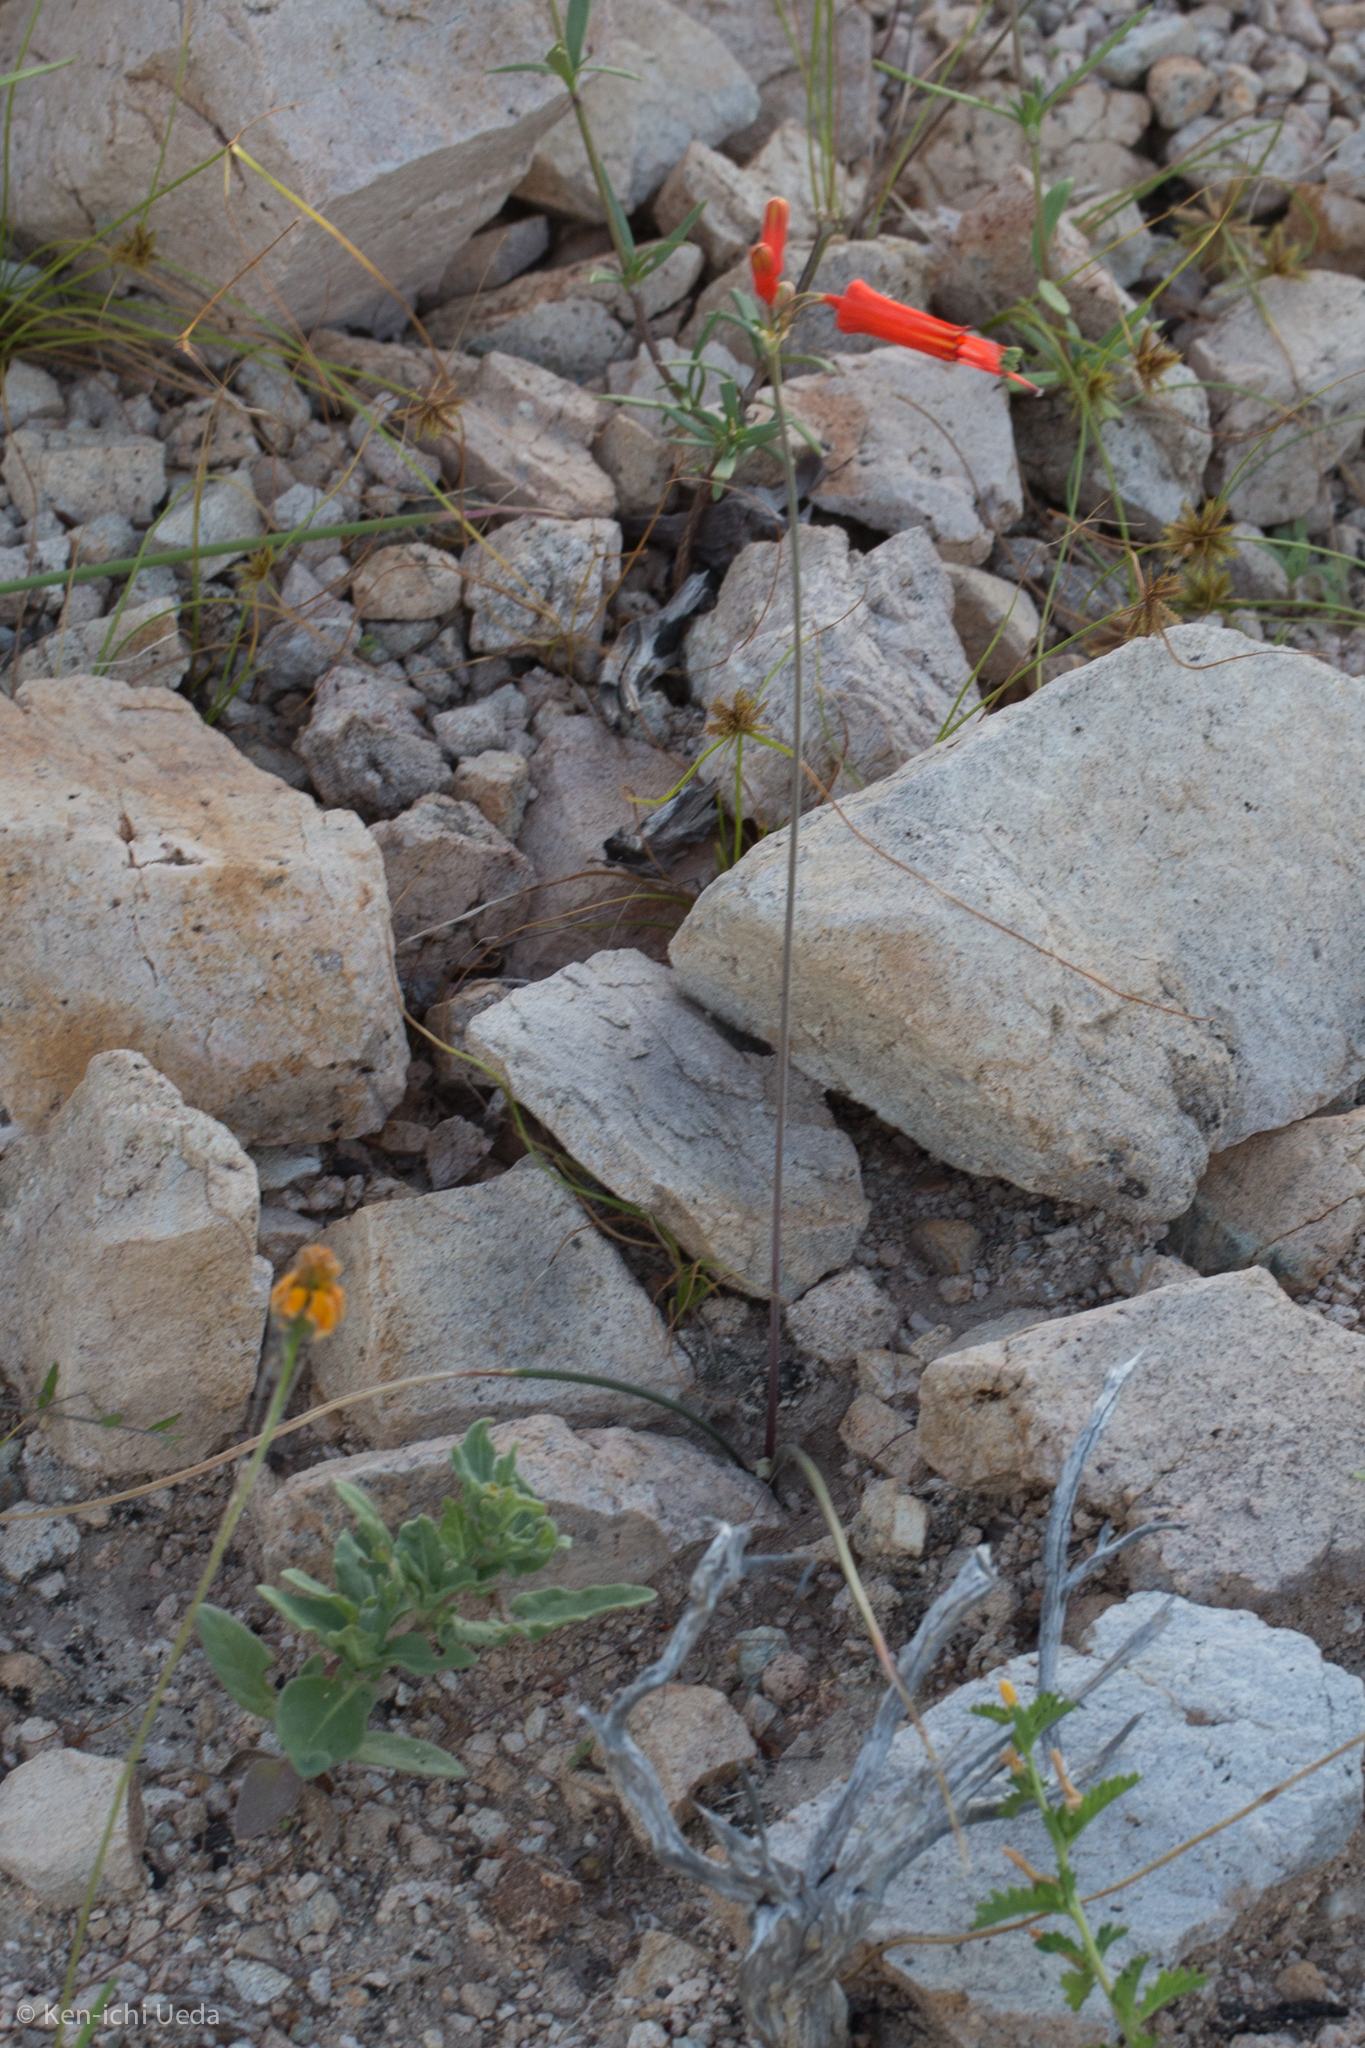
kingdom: Plantae
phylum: Tracheophyta
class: Liliopsida
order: Asparagales
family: Asparagaceae
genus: Bessera
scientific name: Bessera tenuiflora
